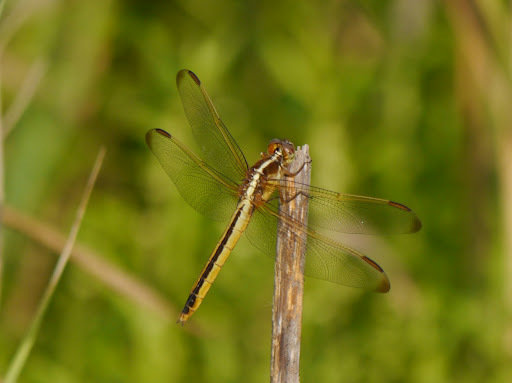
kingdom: Animalia
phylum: Arthropoda
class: Insecta
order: Odonata
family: Libellulidae
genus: Libellula
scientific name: Libellula needhami
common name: Needham's skimmer
